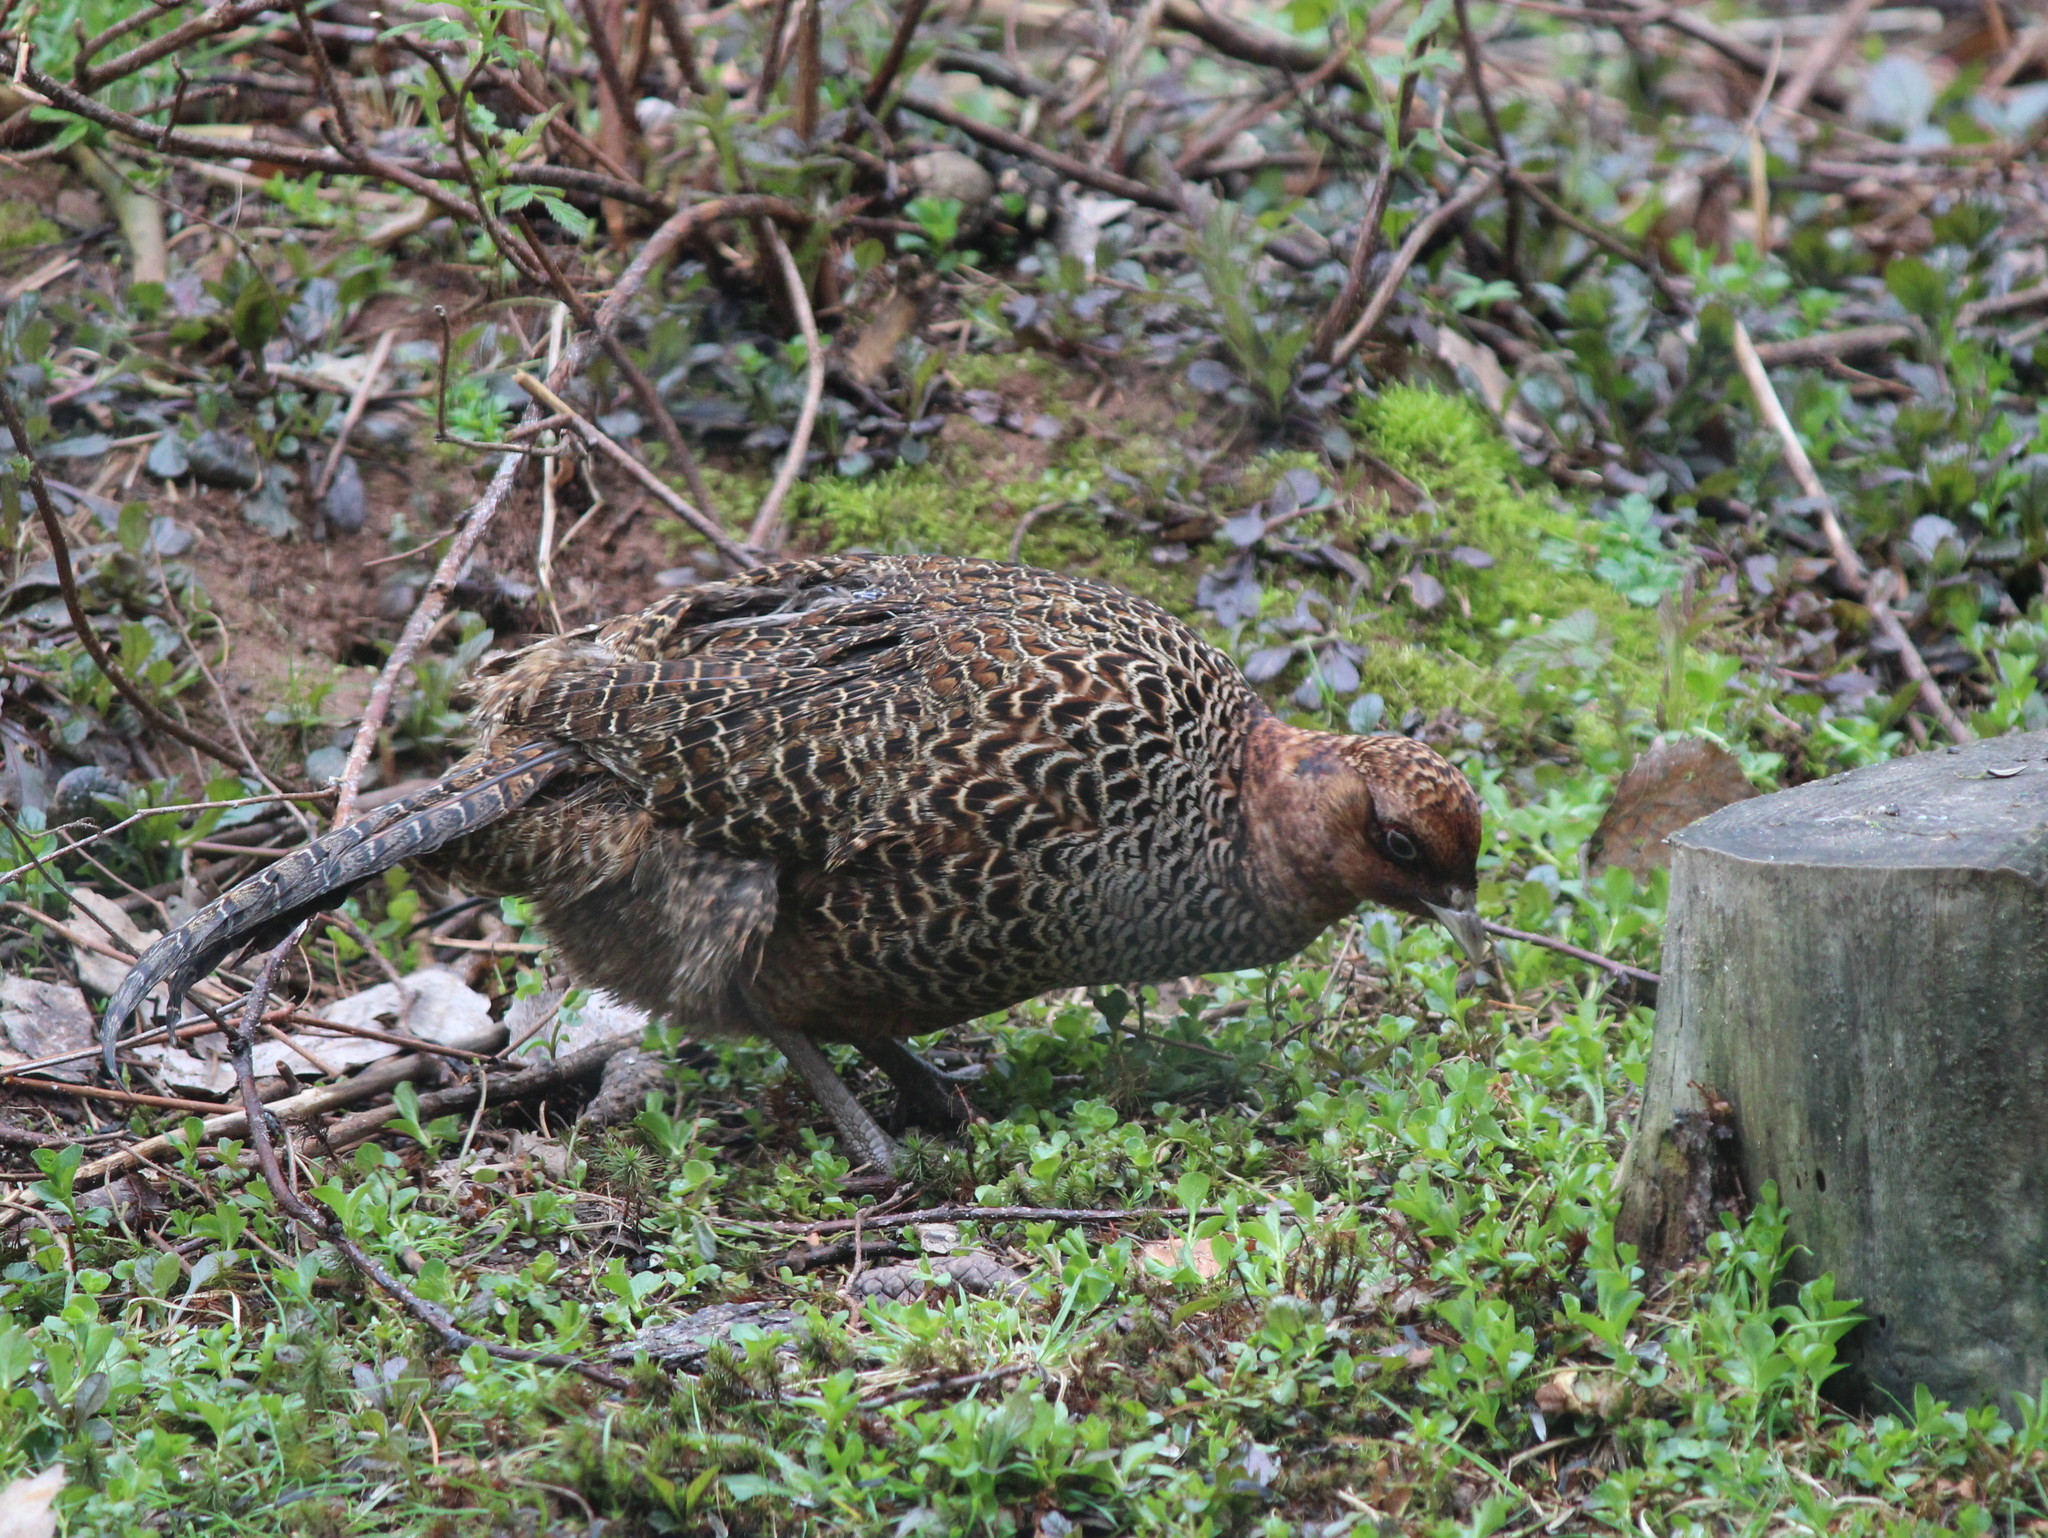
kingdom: Animalia
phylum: Chordata
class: Aves
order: Galliformes
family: Phasianidae
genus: Phasianus
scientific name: Phasianus colchicus
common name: Common pheasant
